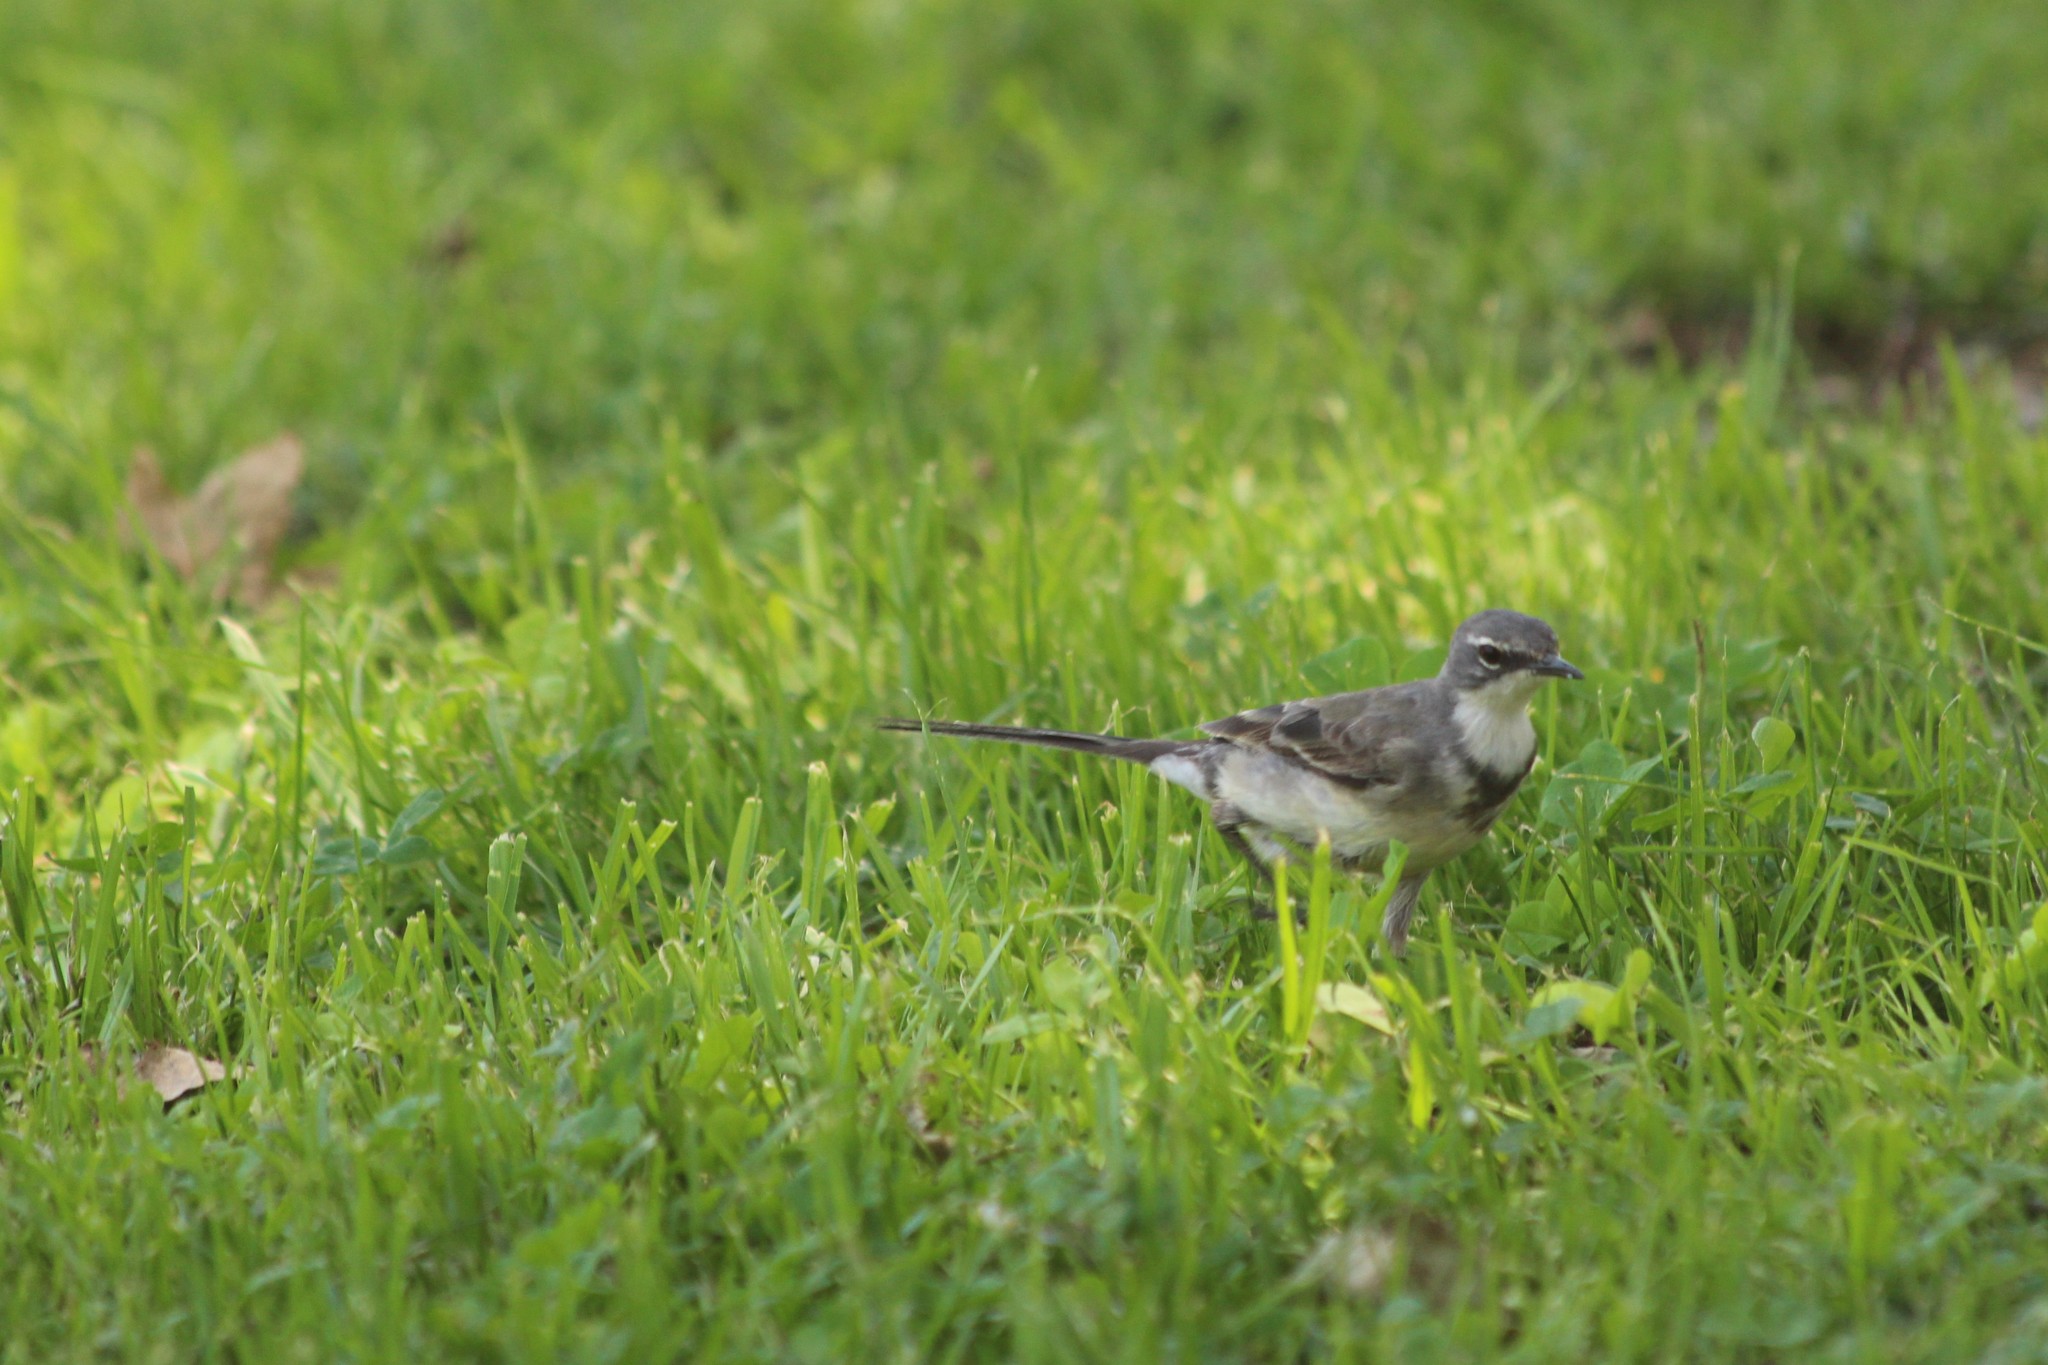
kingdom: Animalia
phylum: Chordata
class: Aves
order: Passeriformes
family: Motacillidae
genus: Motacilla
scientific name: Motacilla capensis
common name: Cape wagtail
